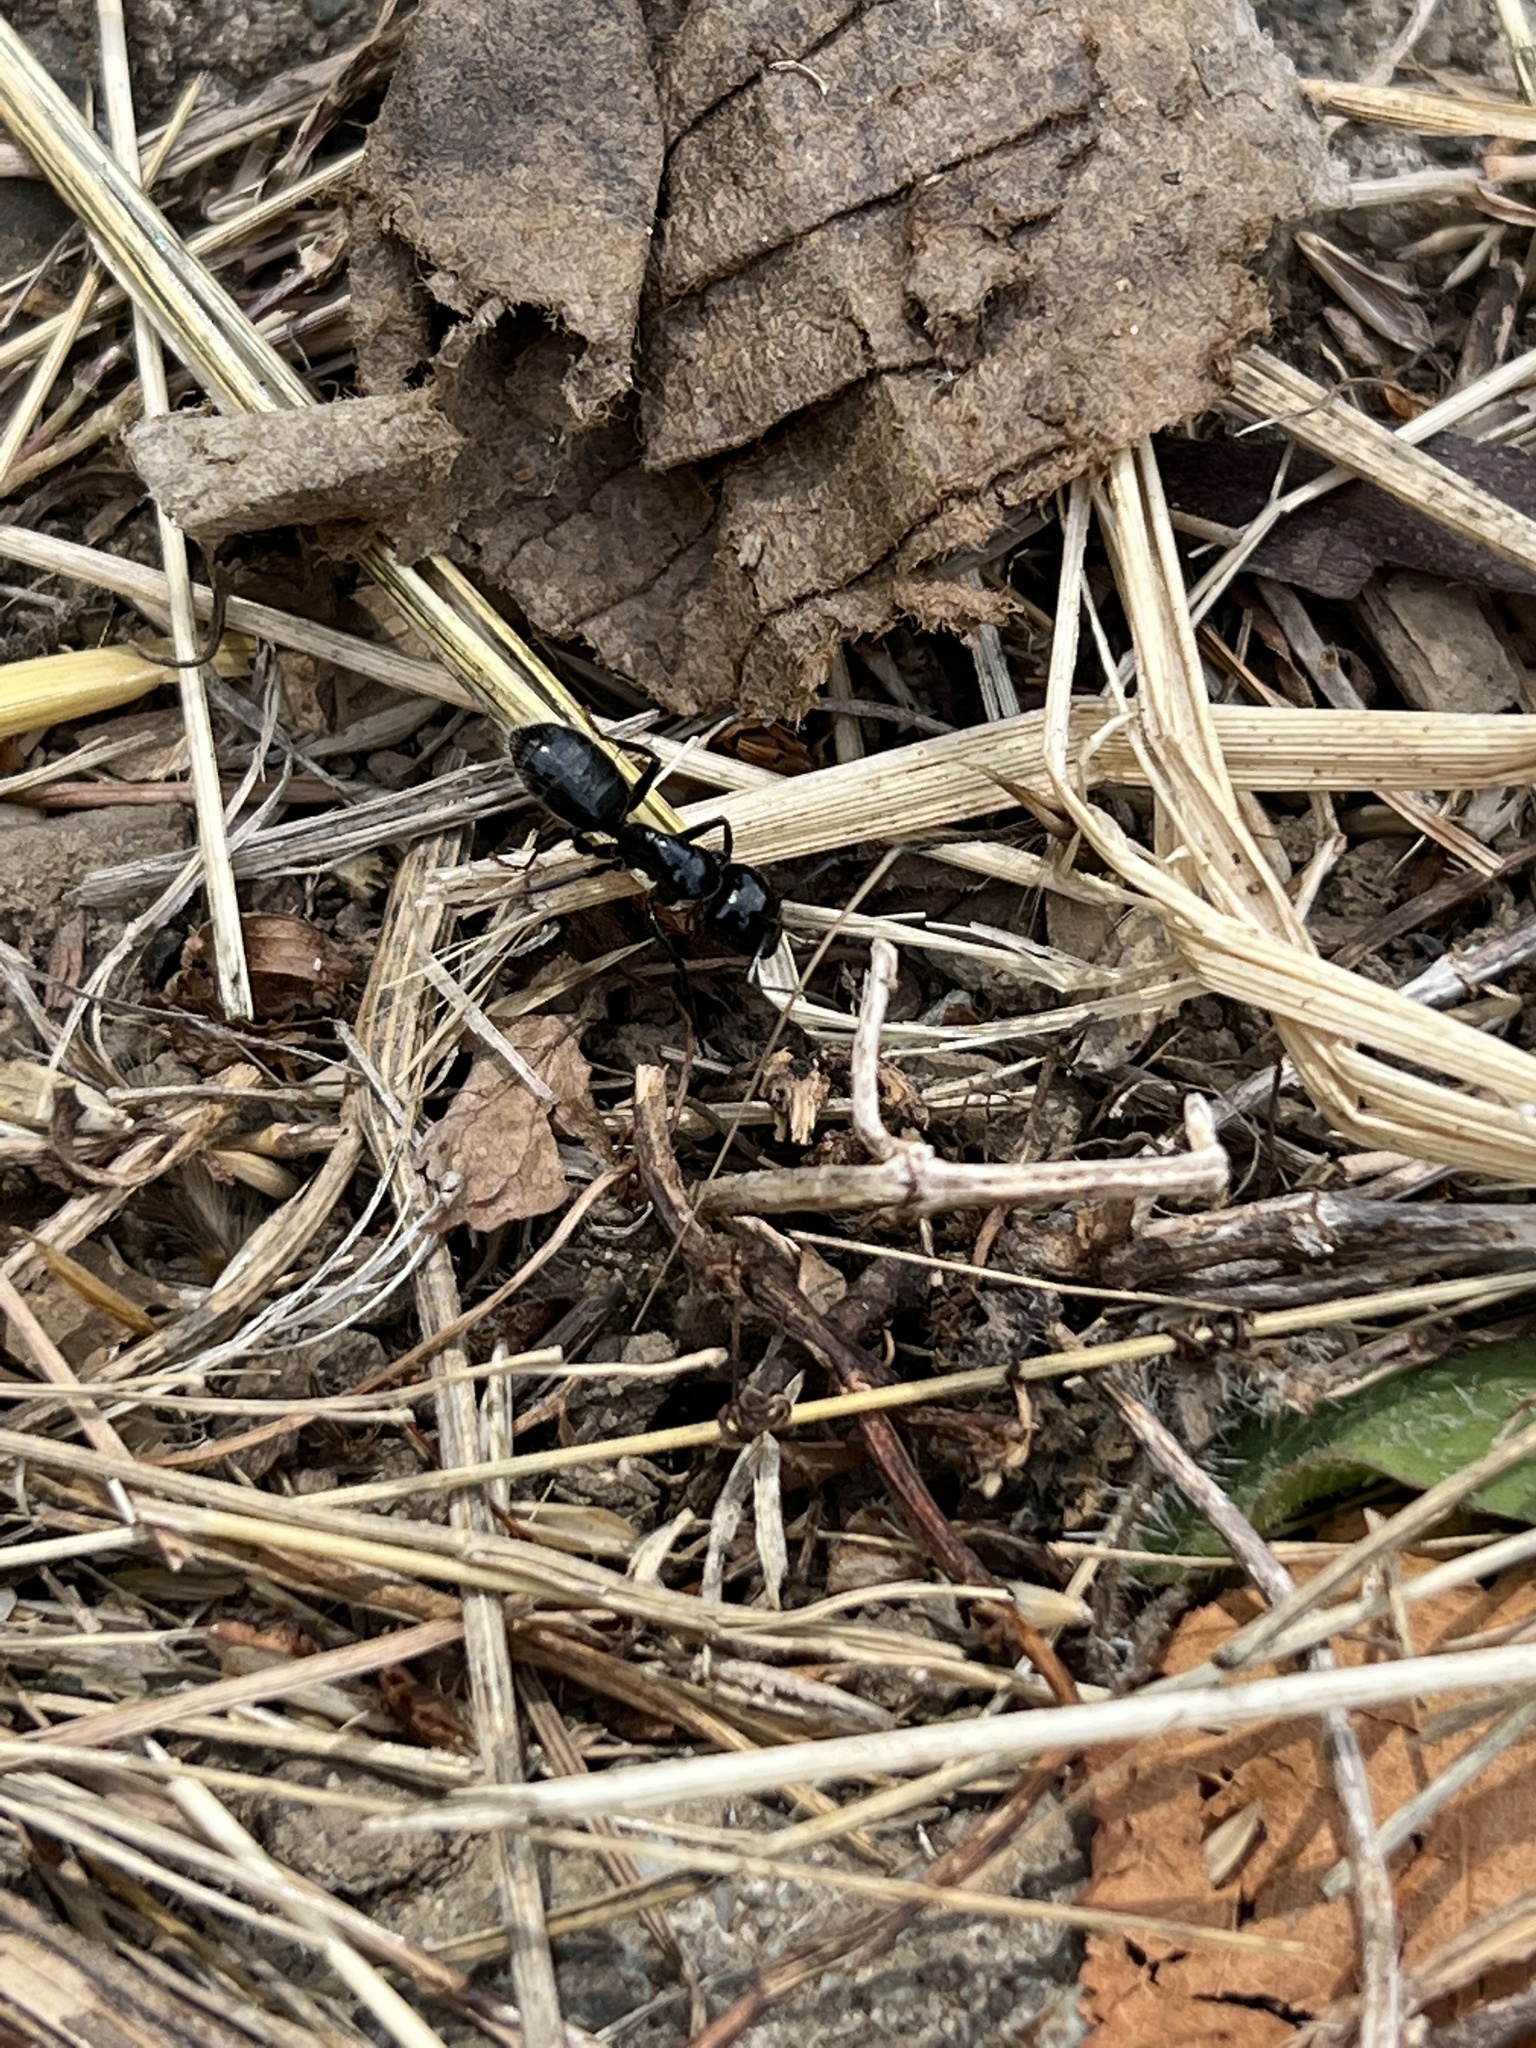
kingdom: Animalia
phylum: Arthropoda
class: Insecta
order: Hymenoptera
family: Formicidae
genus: Camponotus
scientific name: Camponotus
